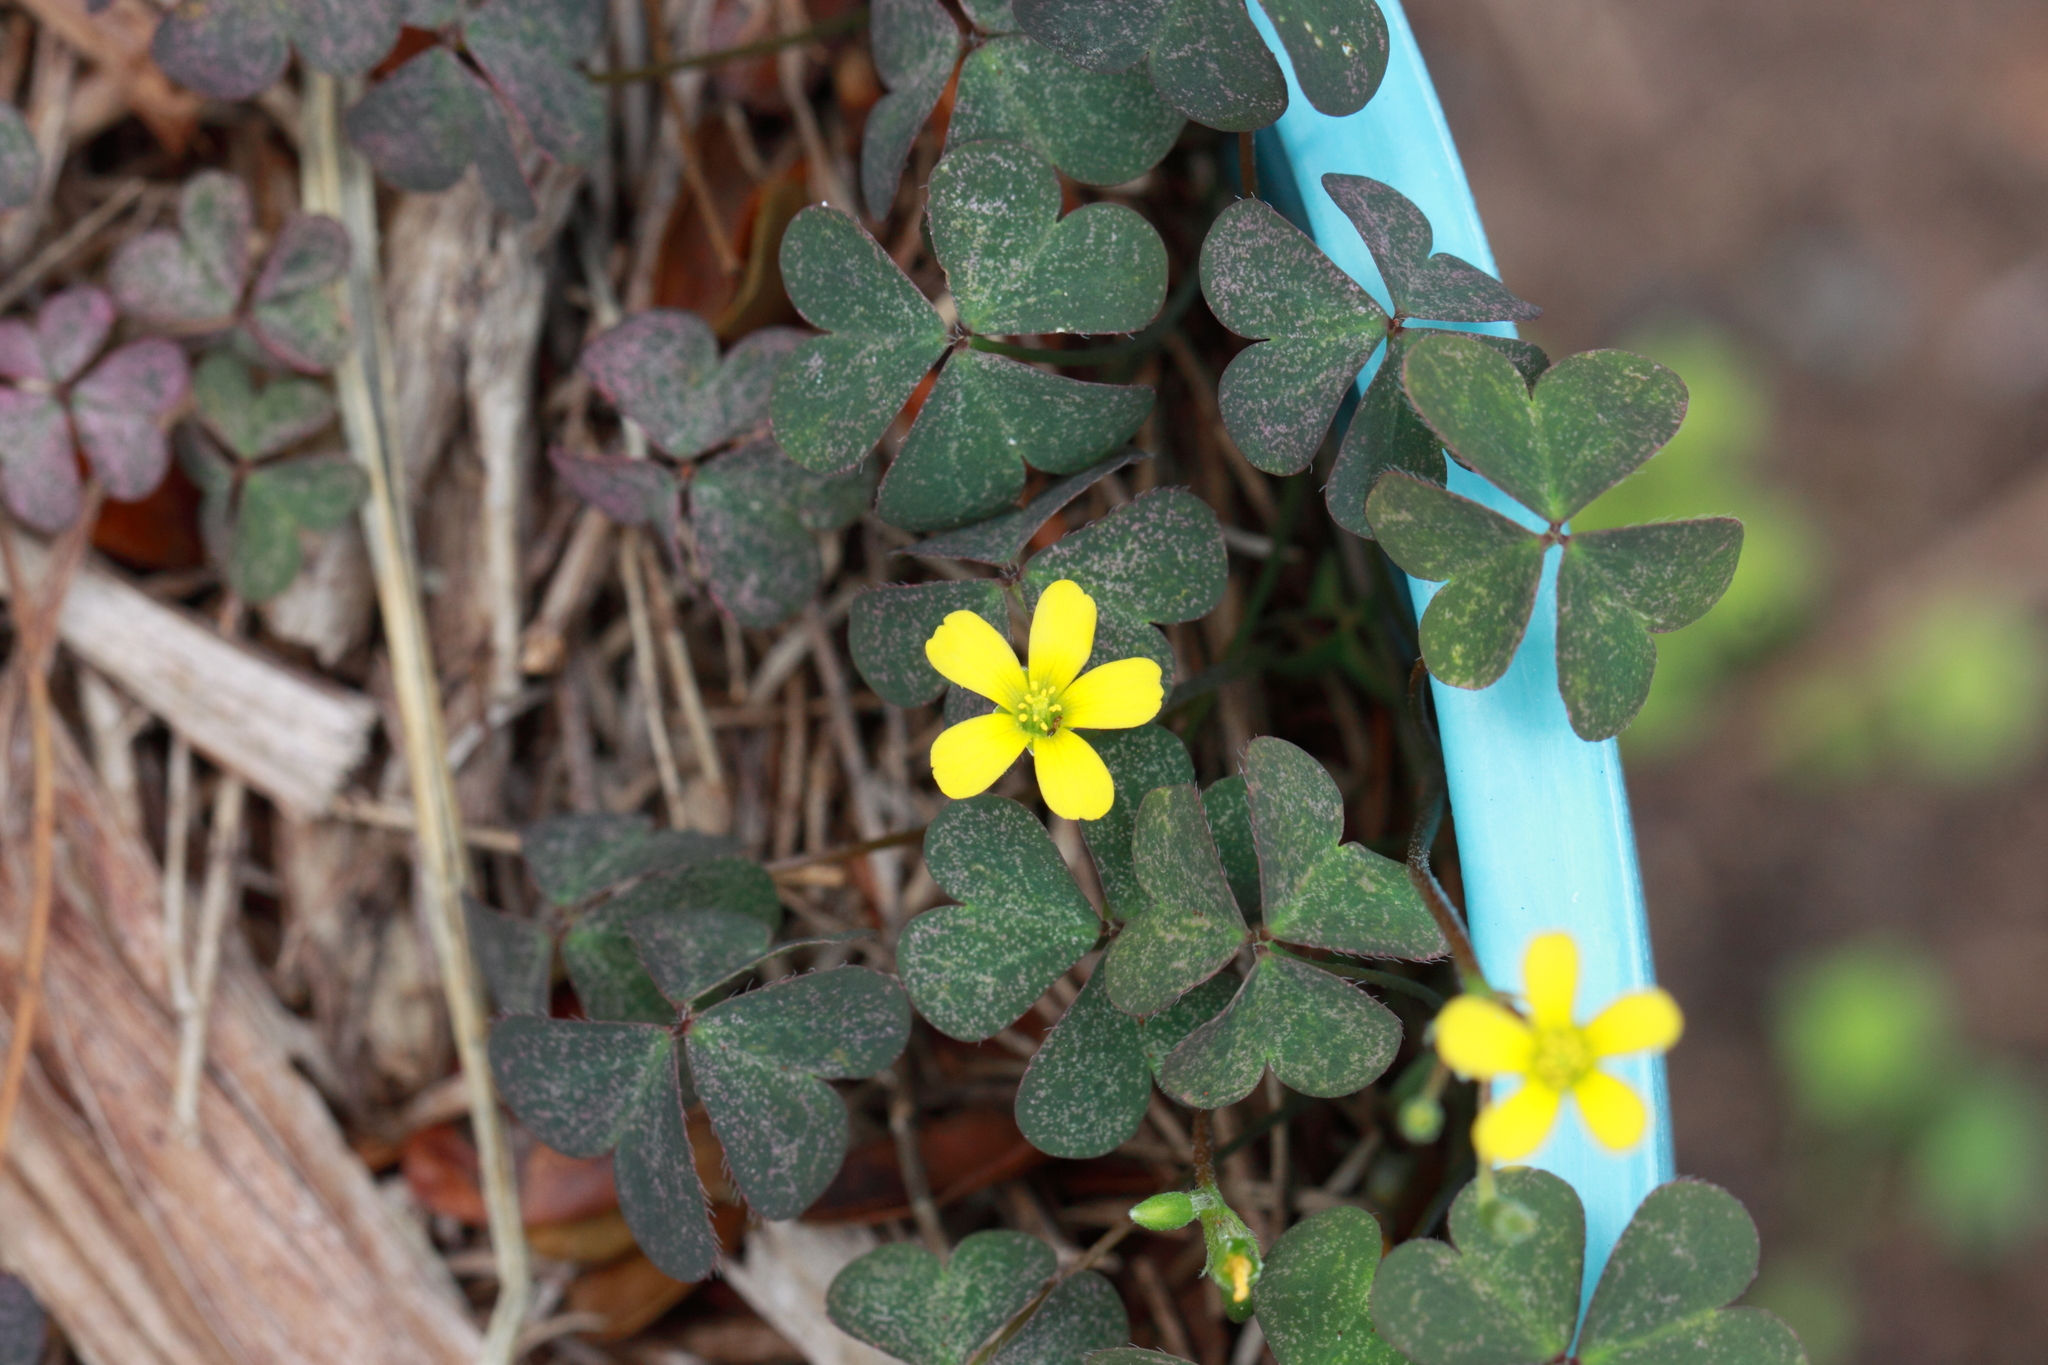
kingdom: Plantae
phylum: Tracheophyta
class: Magnoliopsida
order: Oxalidales
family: Oxalidaceae
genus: Oxalis
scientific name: Oxalis corniculata
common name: Procumbent yellow-sorrel
